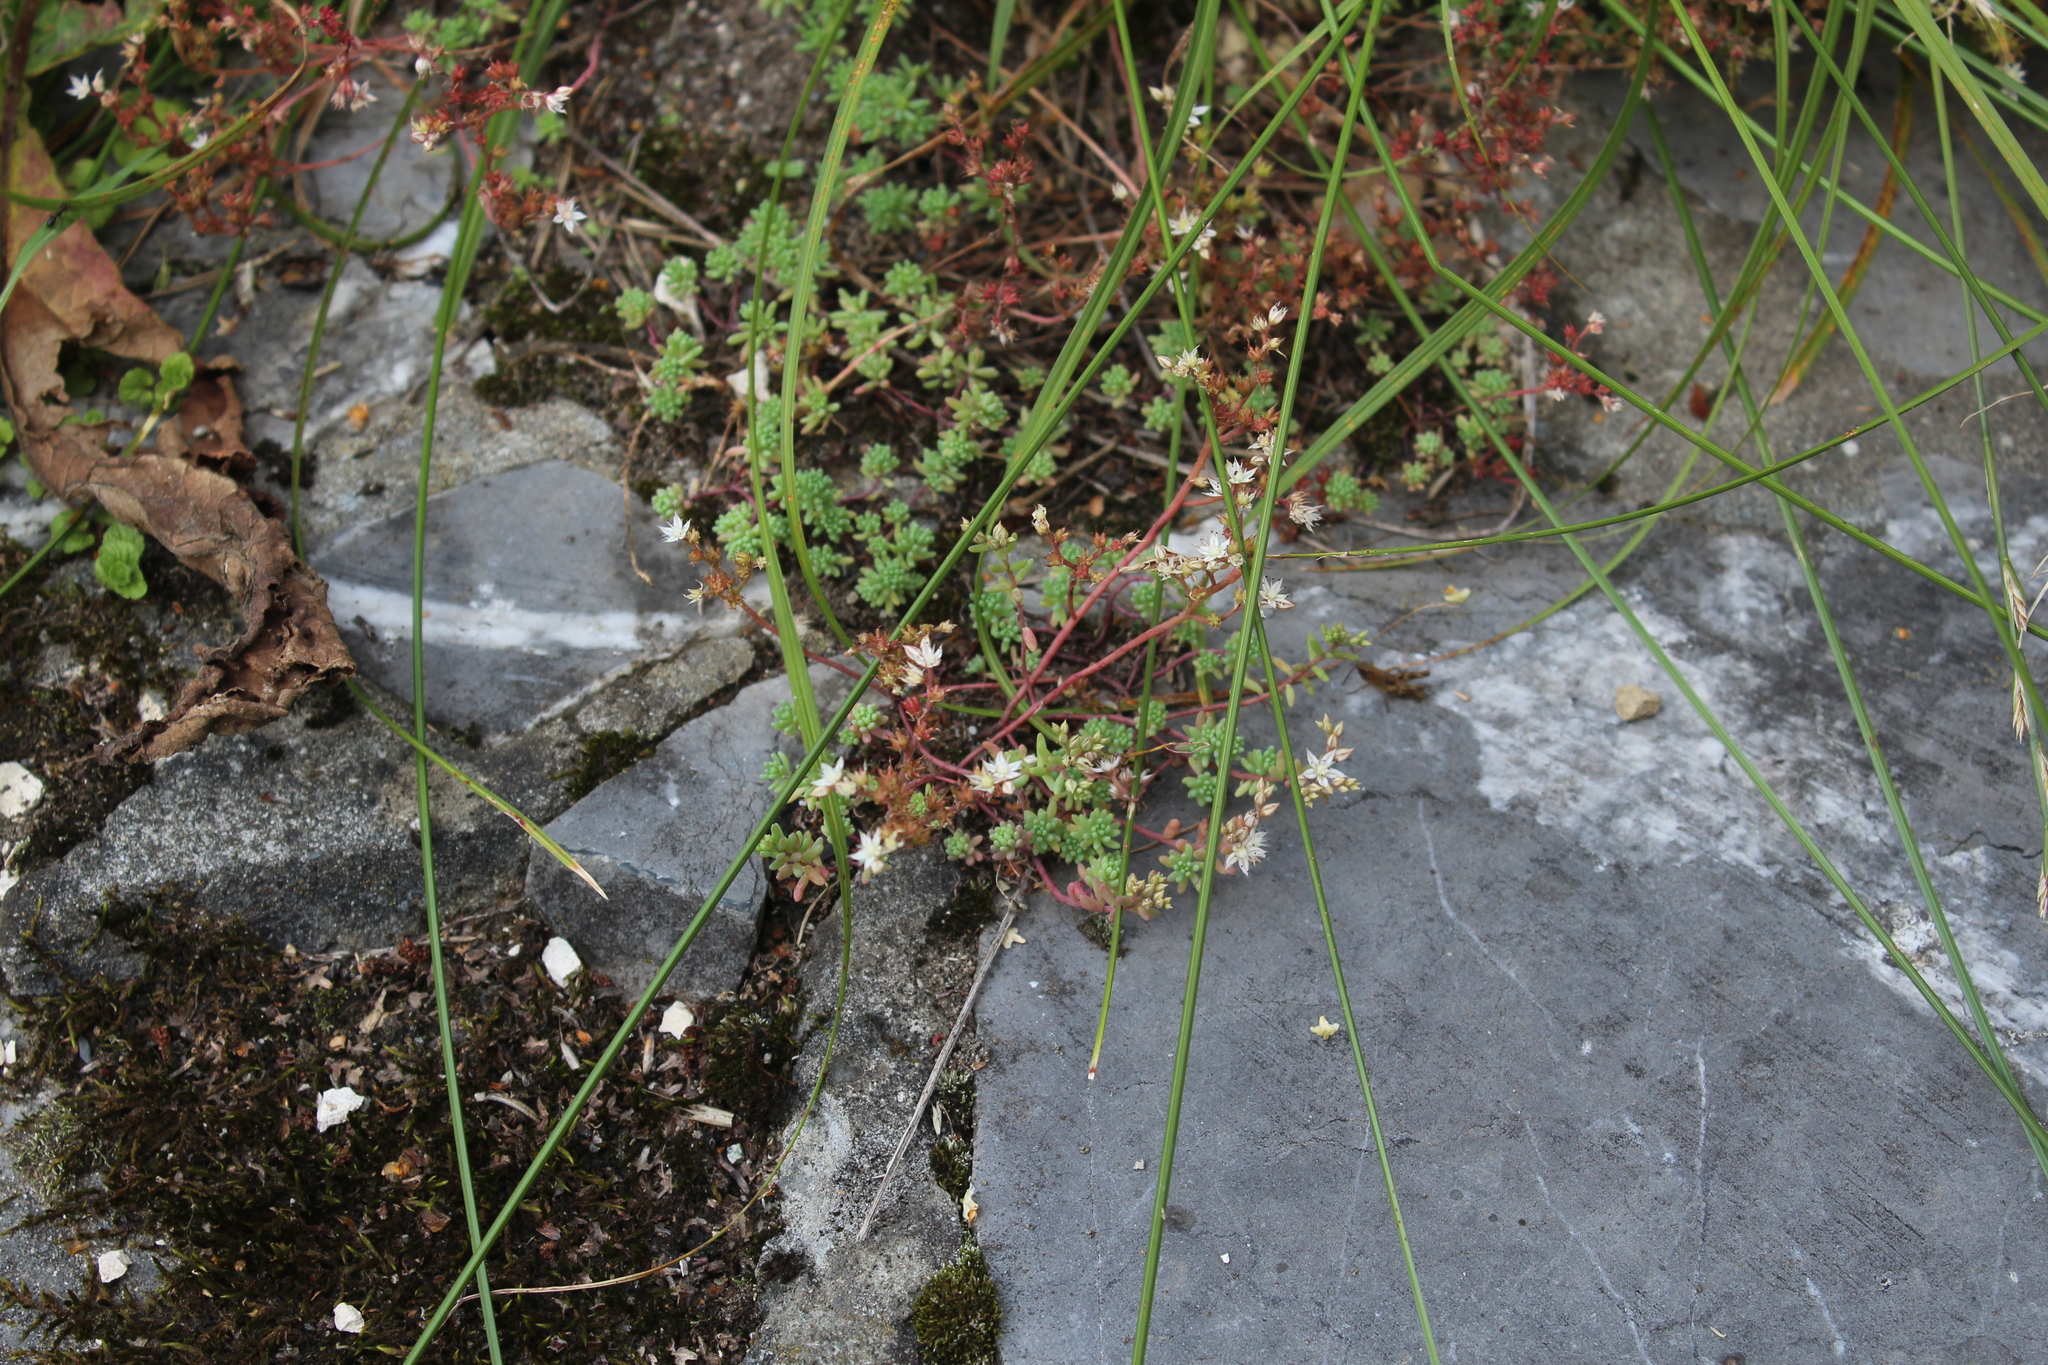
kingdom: Plantae
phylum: Tracheophyta
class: Magnoliopsida
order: Saxifragales
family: Crassulaceae
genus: Sedum
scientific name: Sedum pallidum
